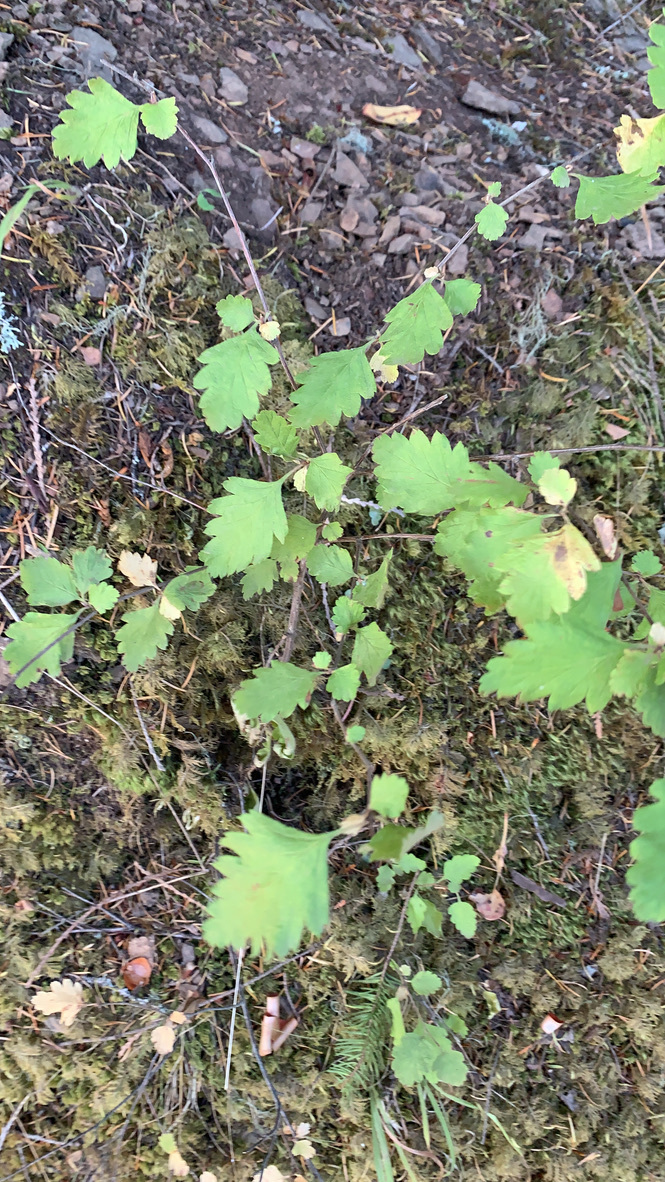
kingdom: Plantae
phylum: Tracheophyta
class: Magnoliopsida
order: Rosales
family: Rosaceae
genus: Holodiscus
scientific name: Holodiscus discolor
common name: Oceanspray
